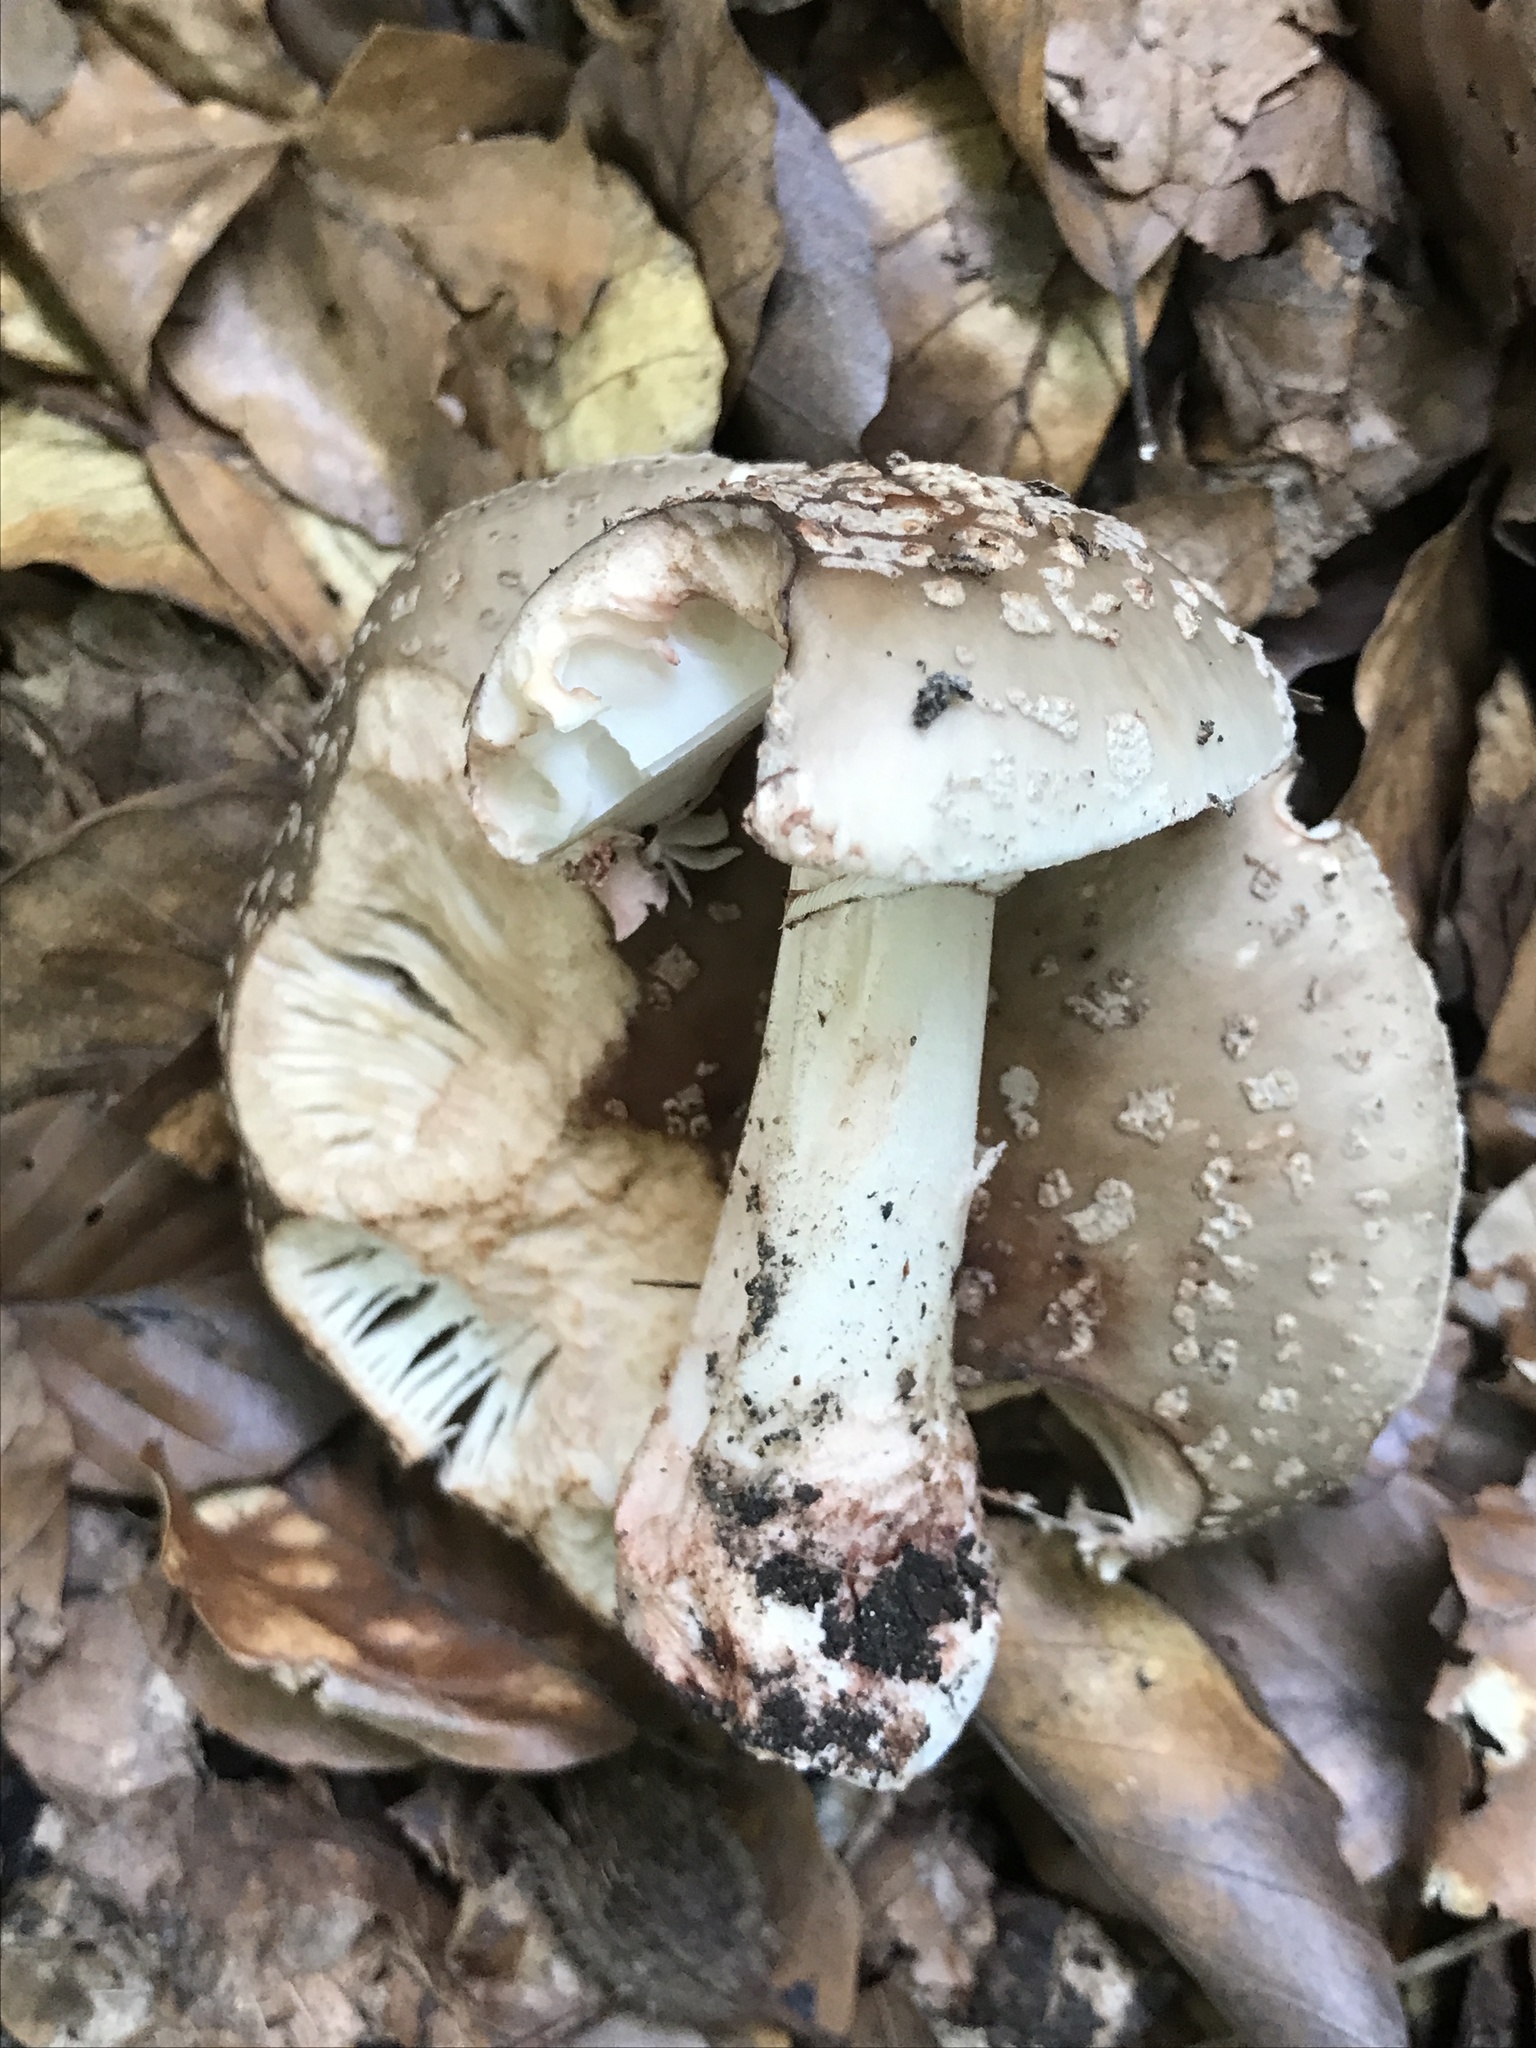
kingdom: Fungi
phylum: Basidiomycota
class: Agaricomycetes
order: Agaricales
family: Amanitaceae
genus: Amanita
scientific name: Amanita rubescens
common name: Blusher
